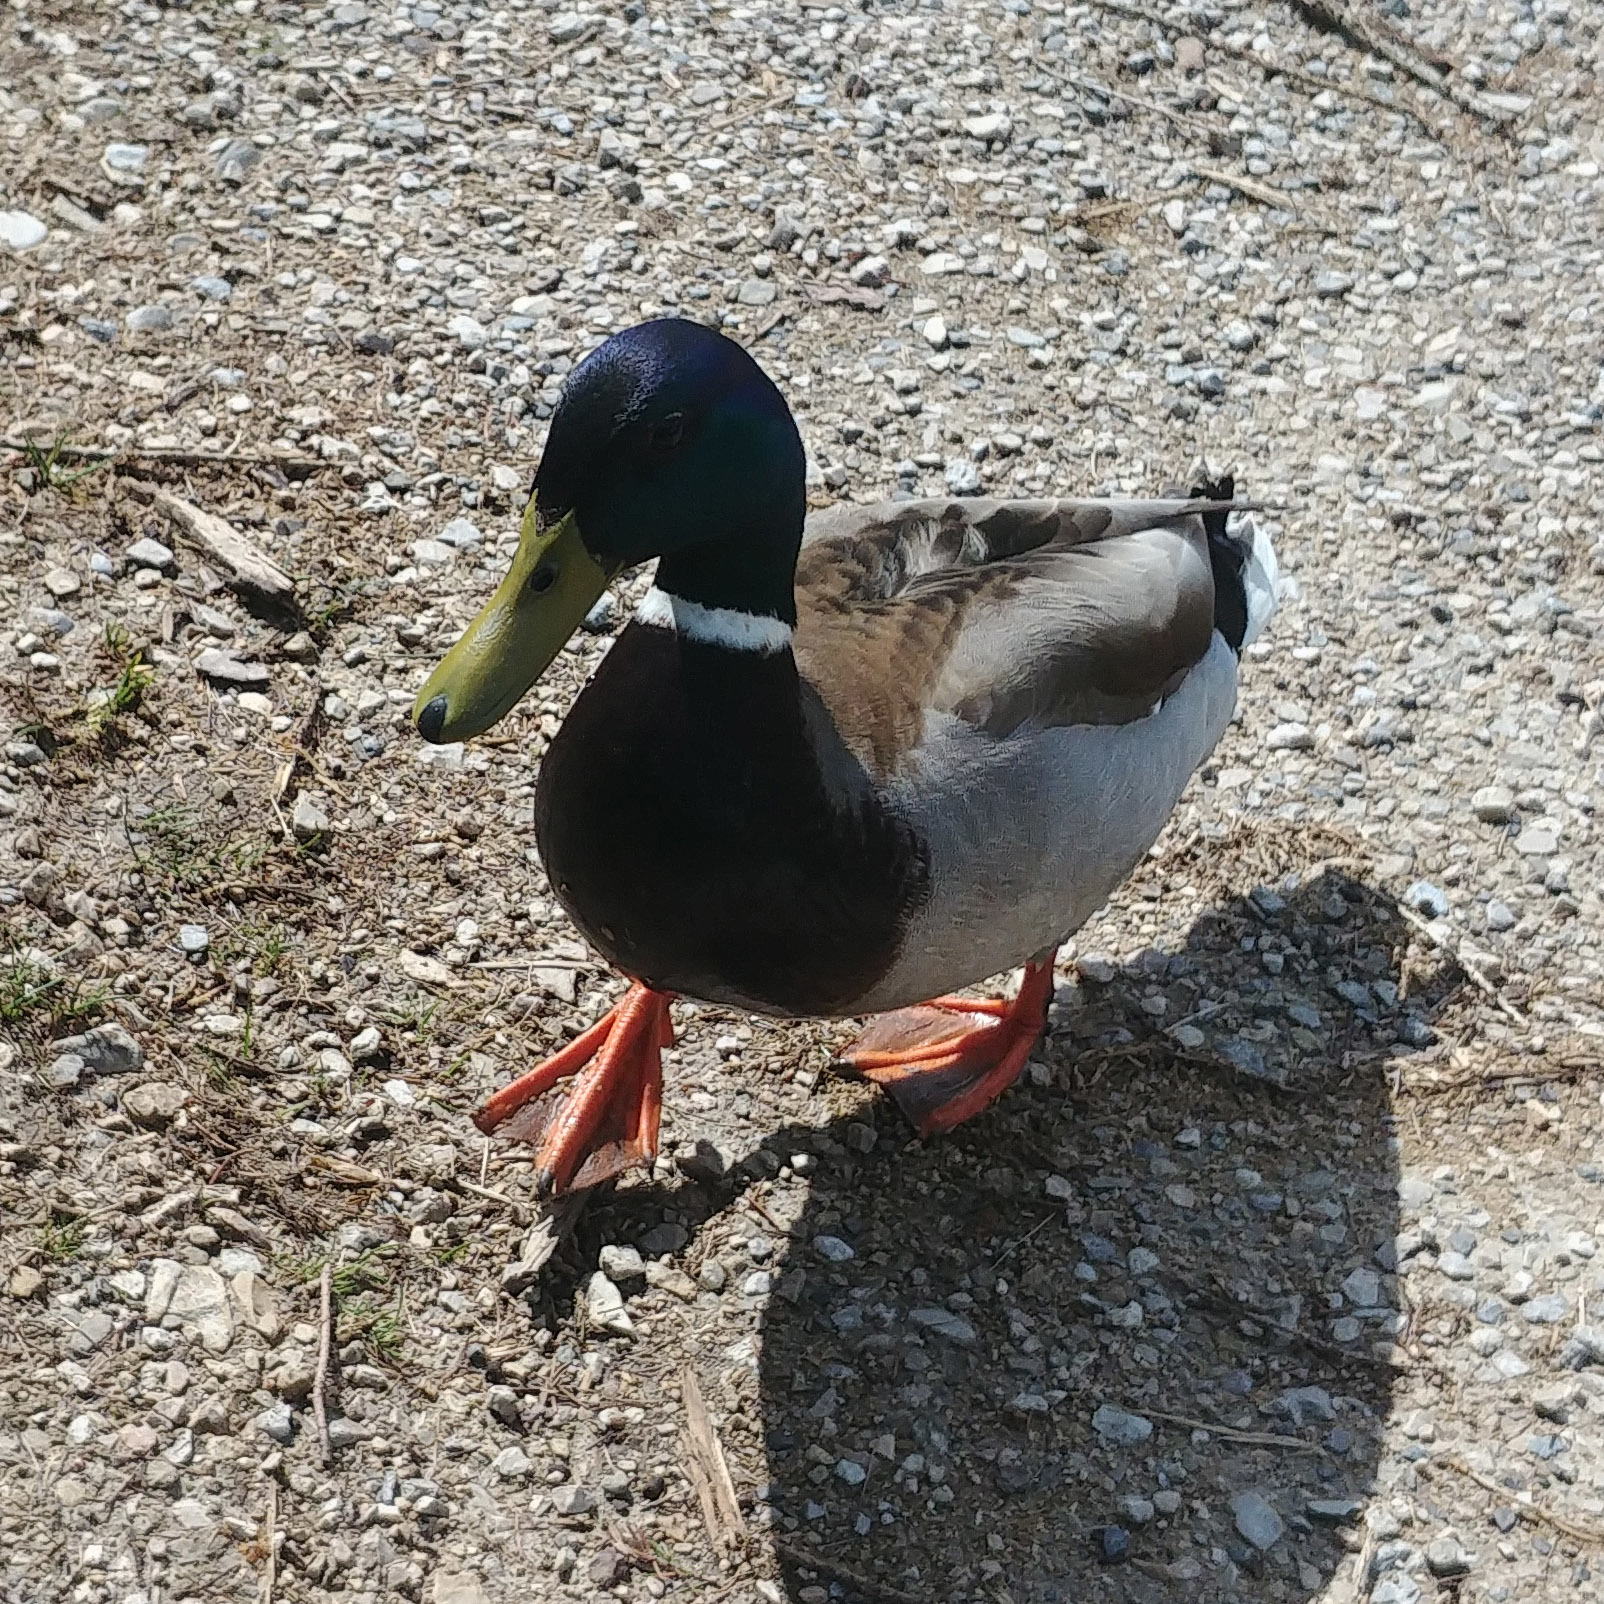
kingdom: Animalia
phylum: Chordata
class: Aves
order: Anseriformes
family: Anatidae
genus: Anas
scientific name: Anas platyrhynchos
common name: Mallard
